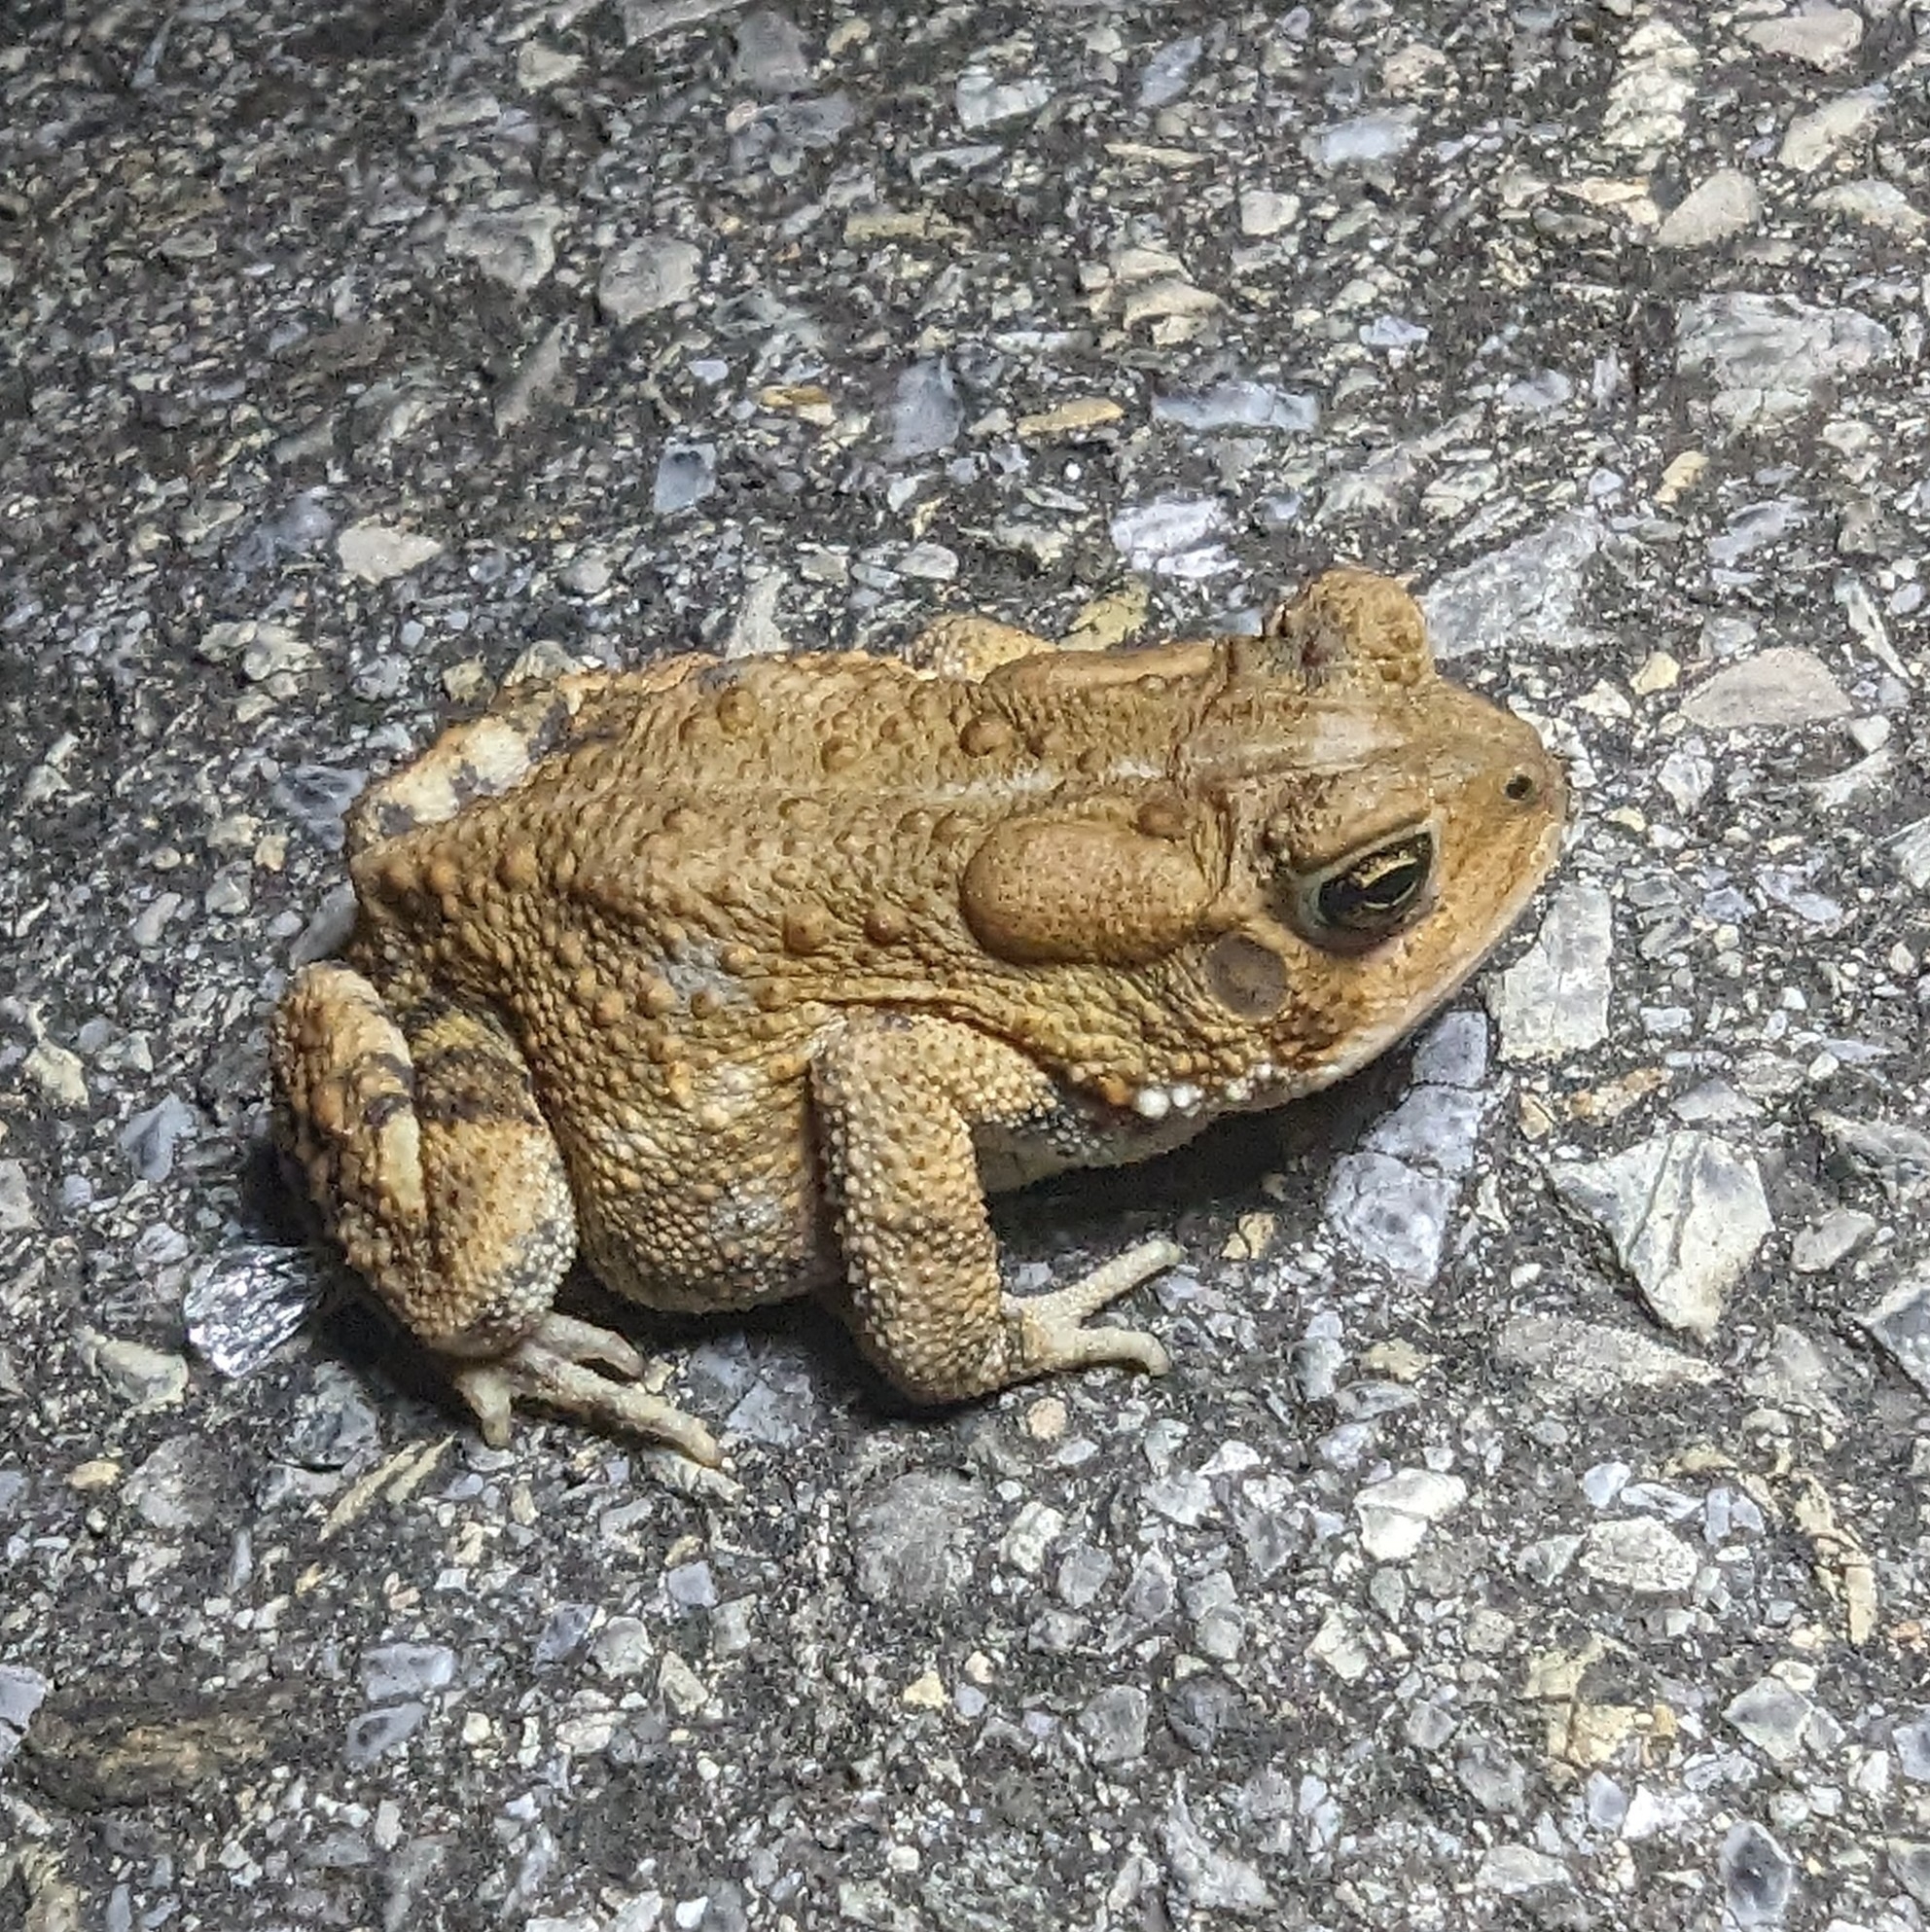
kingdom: Animalia
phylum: Chordata
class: Amphibia
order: Anura
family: Bufonidae
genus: Anaxyrus
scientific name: Anaxyrus americanus
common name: American toad
